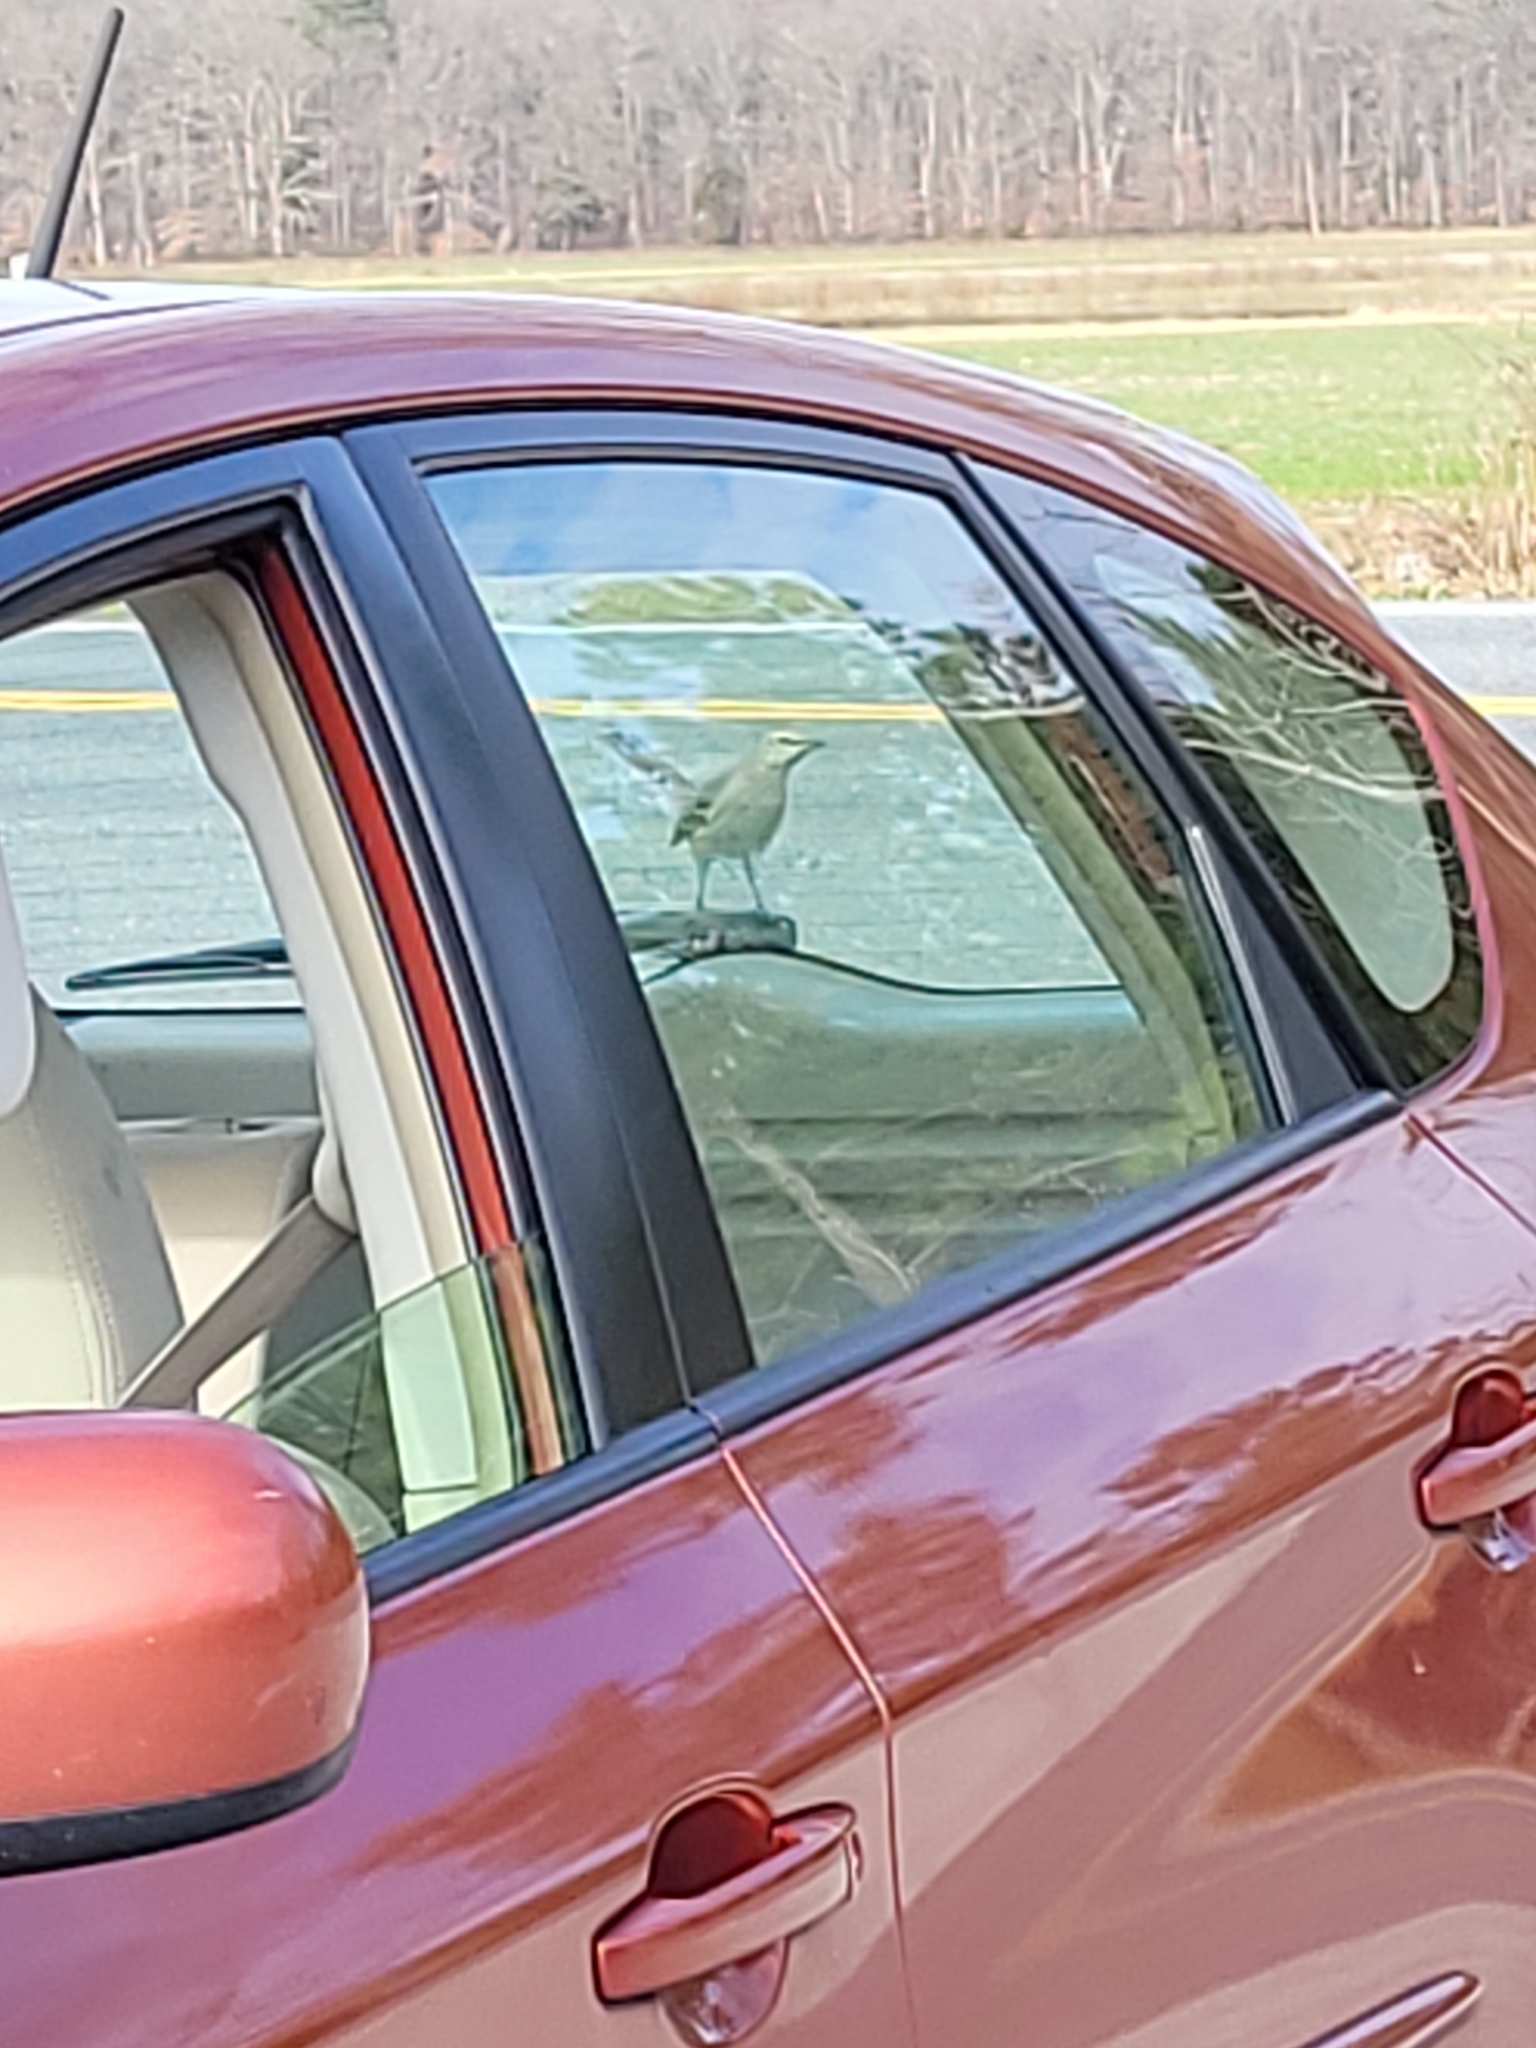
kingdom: Animalia
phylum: Chordata
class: Aves
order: Passeriformes
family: Mimidae
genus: Mimus
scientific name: Mimus polyglottos
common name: Northern mockingbird
